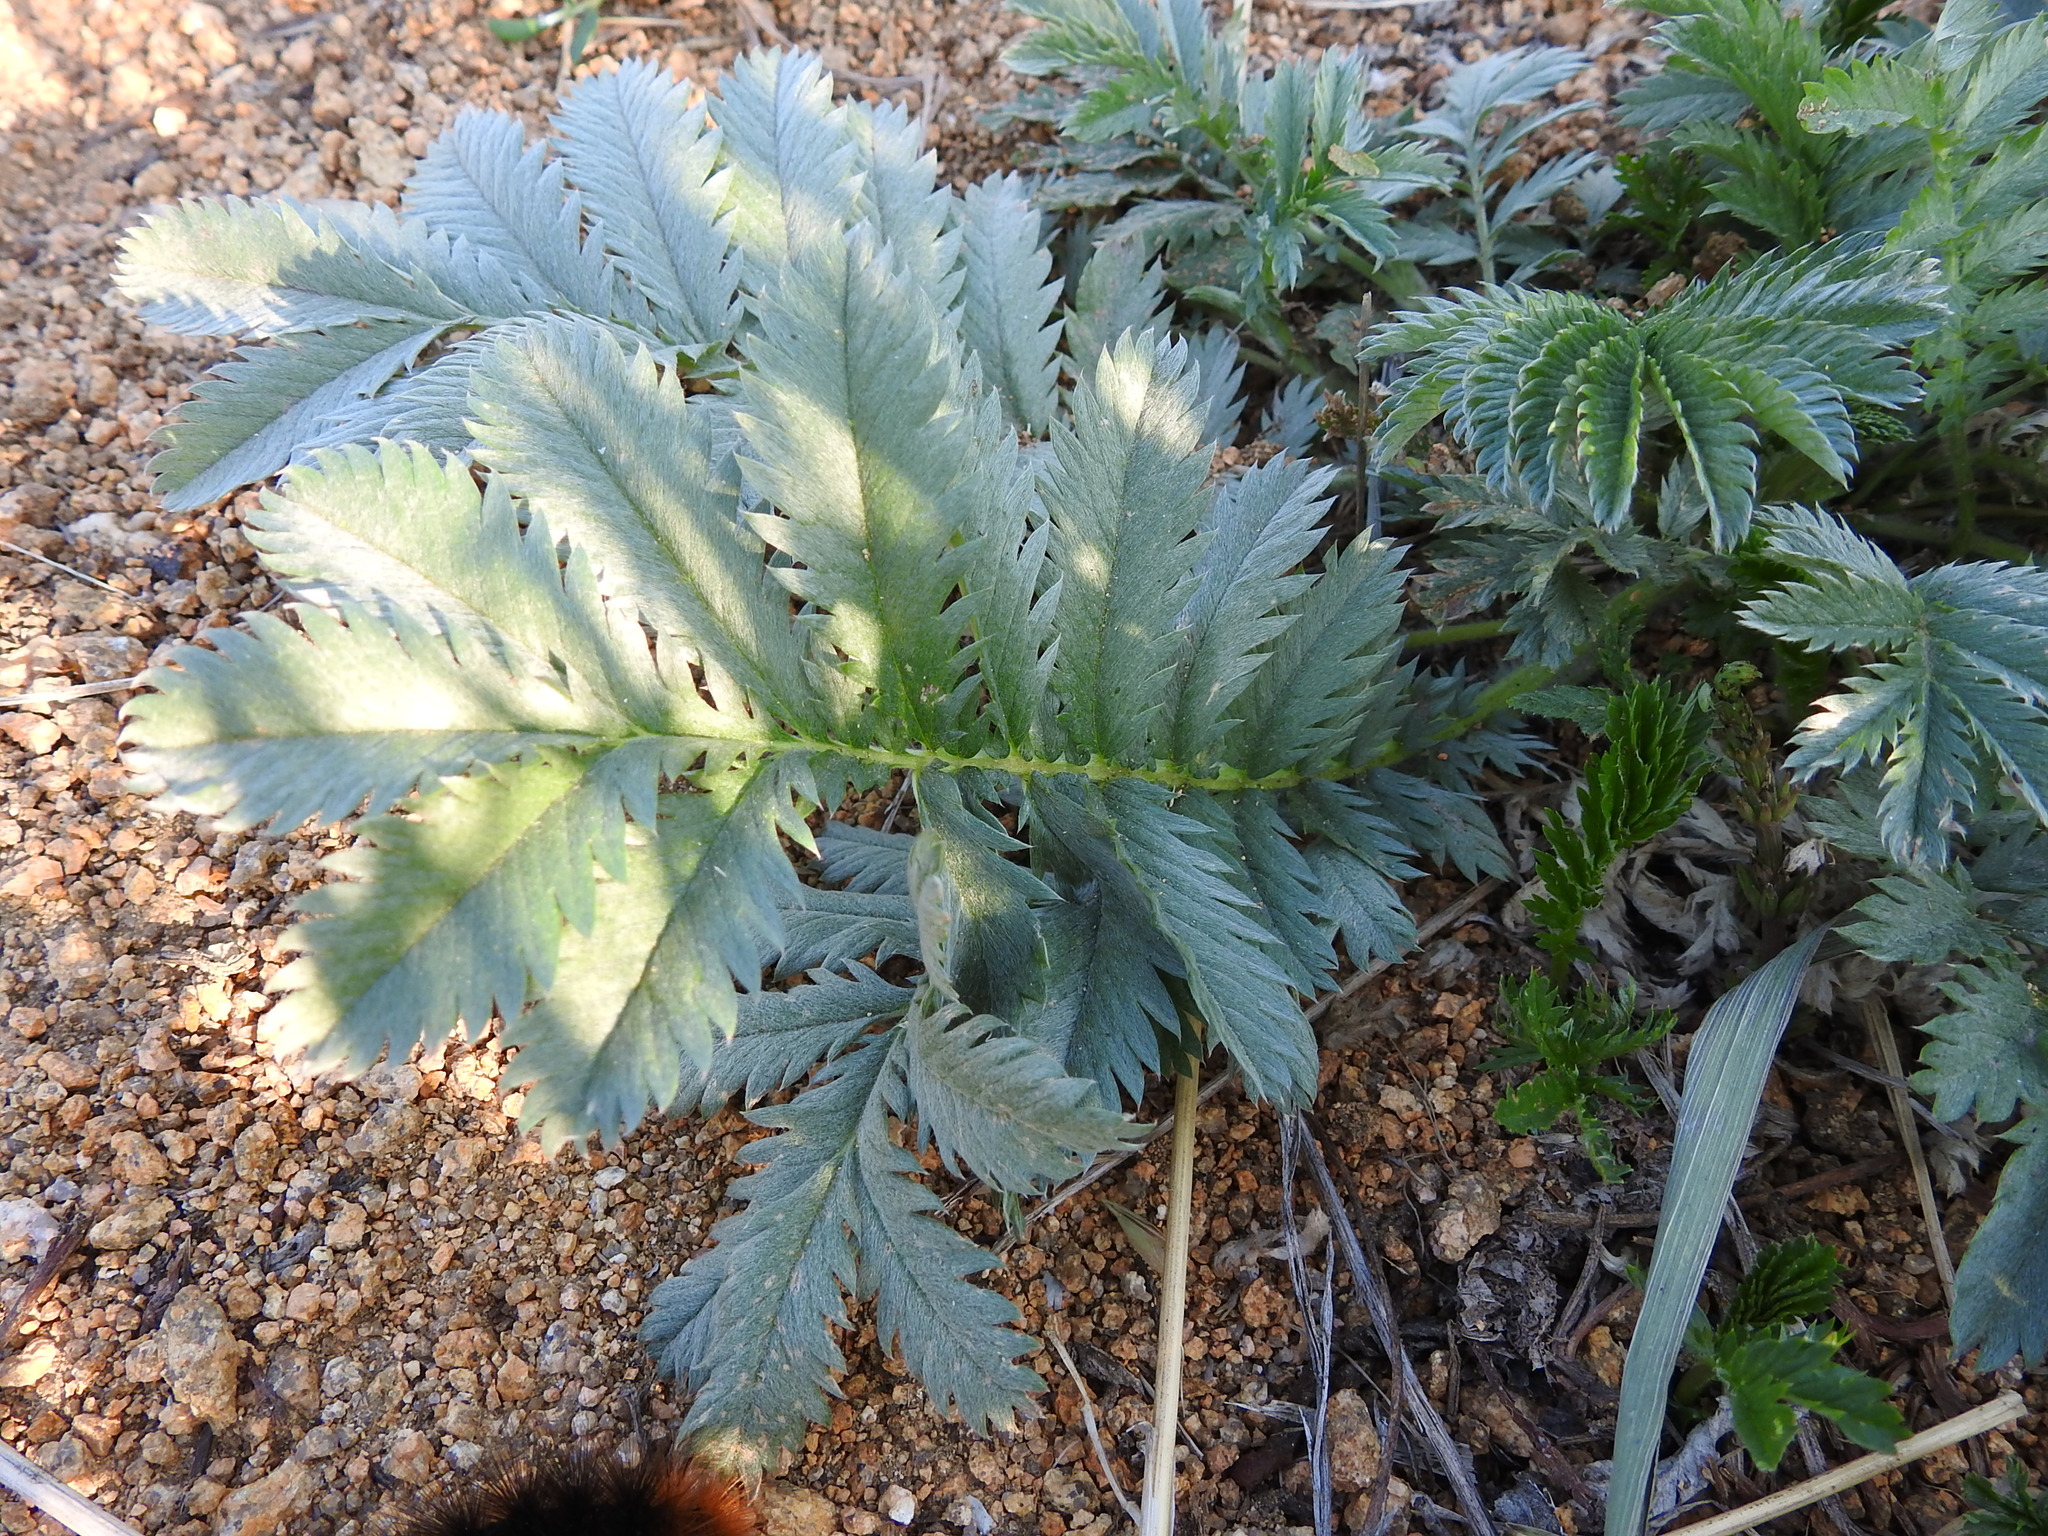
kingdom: Plantae
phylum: Tracheophyta
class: Magnoliopsida
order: Rosales
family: Rosaceae
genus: Argentina
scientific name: Argentina anserina
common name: Common silverweed
